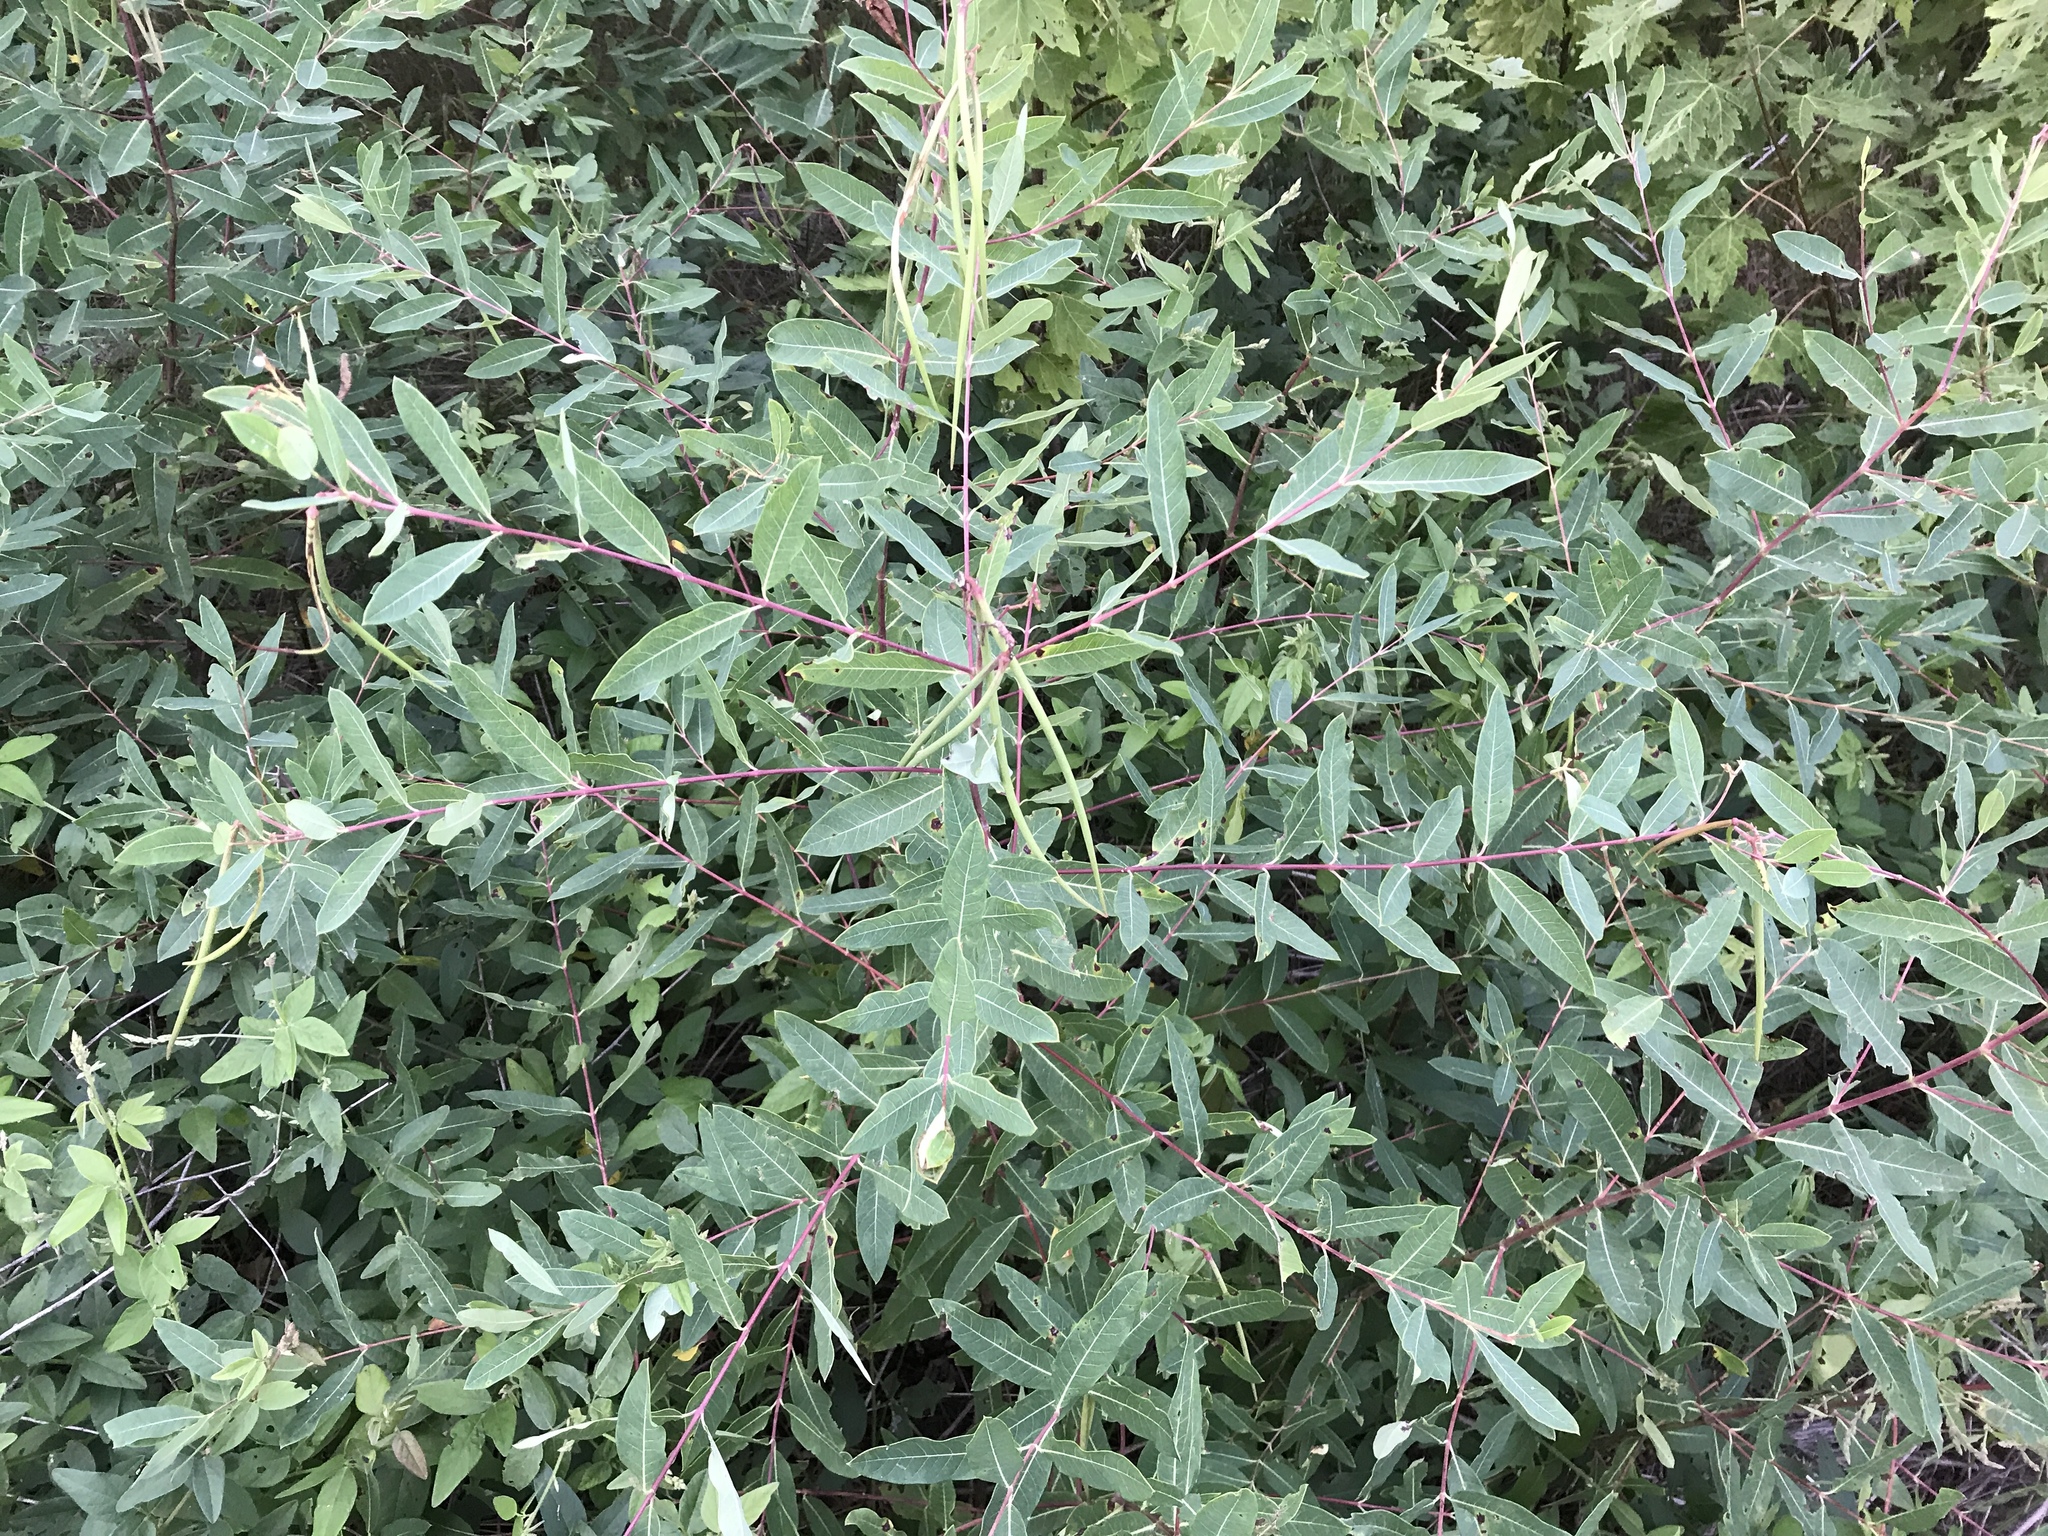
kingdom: Plantae
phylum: Tracheophyta
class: Magnoliopsida
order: Gentianales
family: Apocynaceae
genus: Apocynum
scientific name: Apocynum cannabinum
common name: Hemp dogbane
